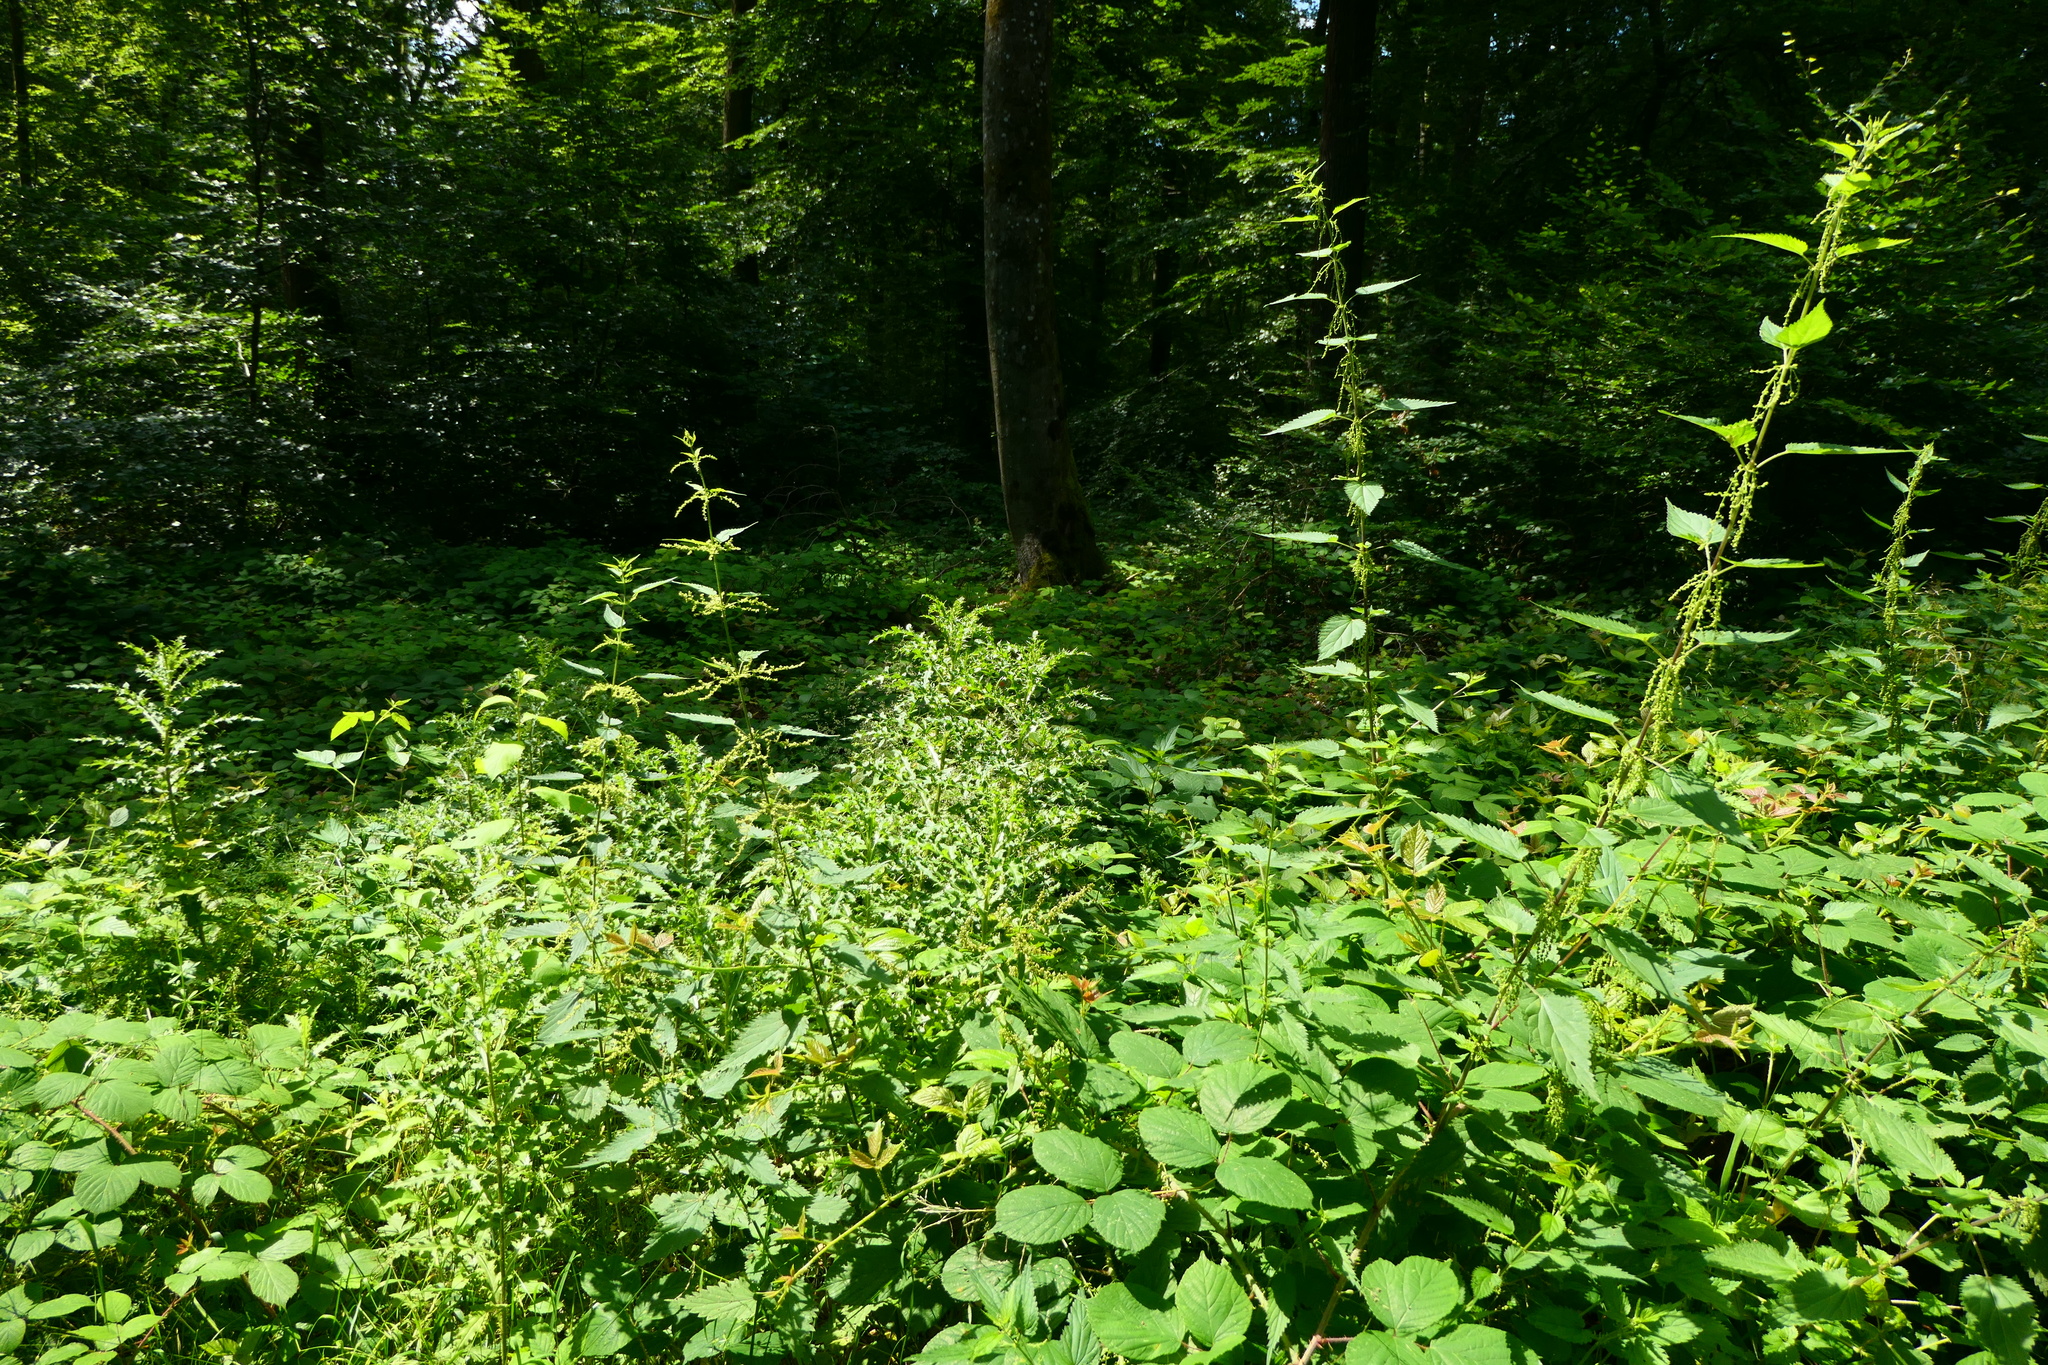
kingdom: Plantae
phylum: Tracheophyta
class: Magnoliopsida
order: Asterales
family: Asteraceae
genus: Cirsium
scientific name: Cirsium arvense
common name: Creeping thistle
